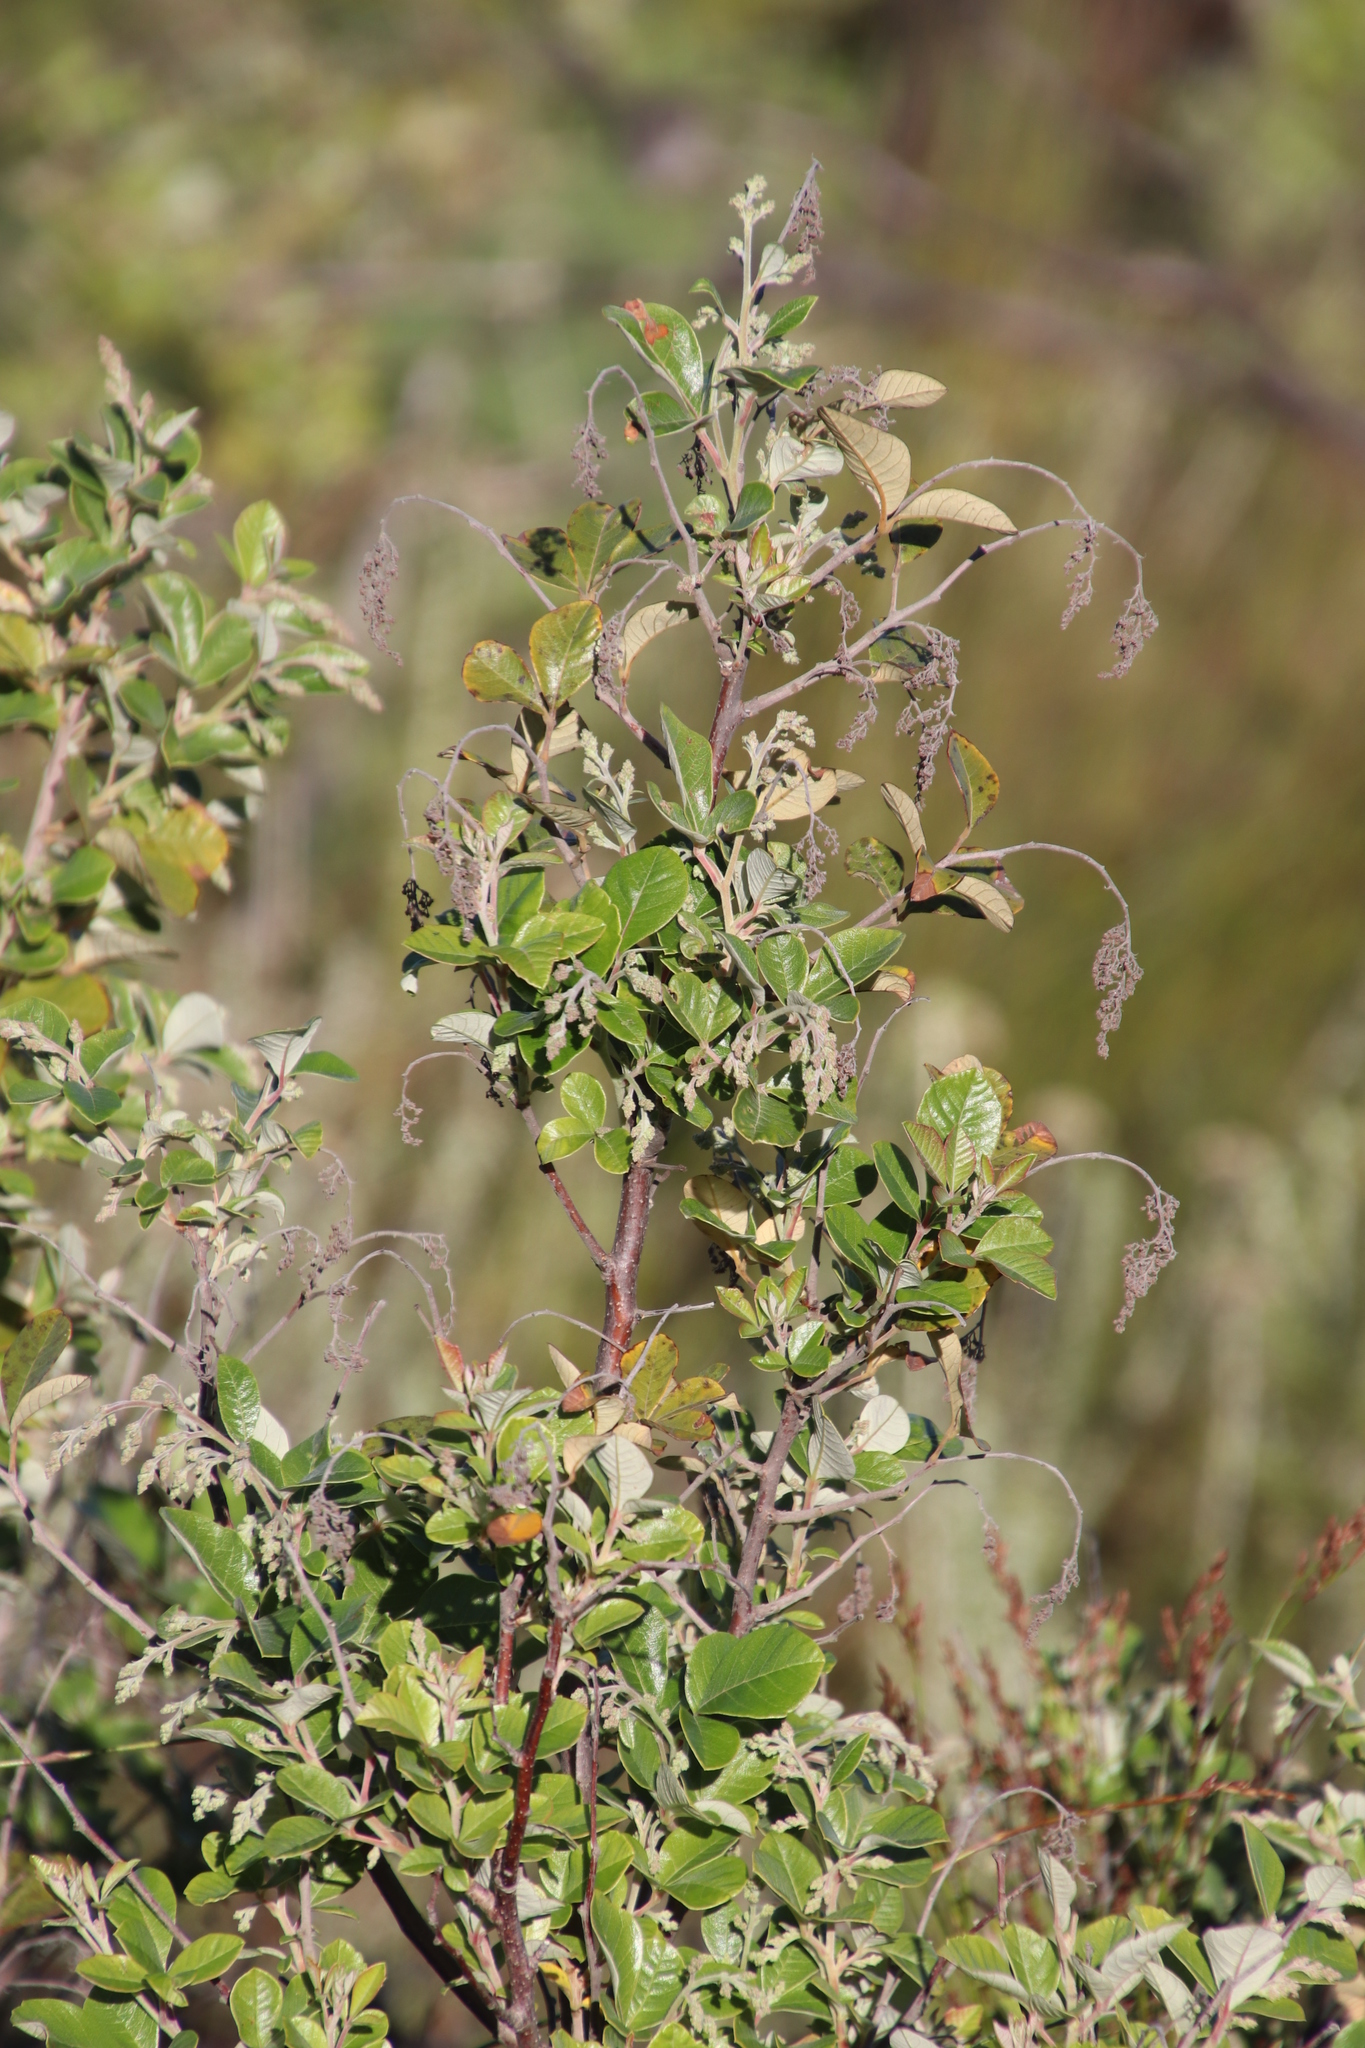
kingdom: Plantae
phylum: Tracheophyta
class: Magnoliopsida
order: Sapindales
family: Anacardiaceae
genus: Searsia
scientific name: Searsia tomentosa
